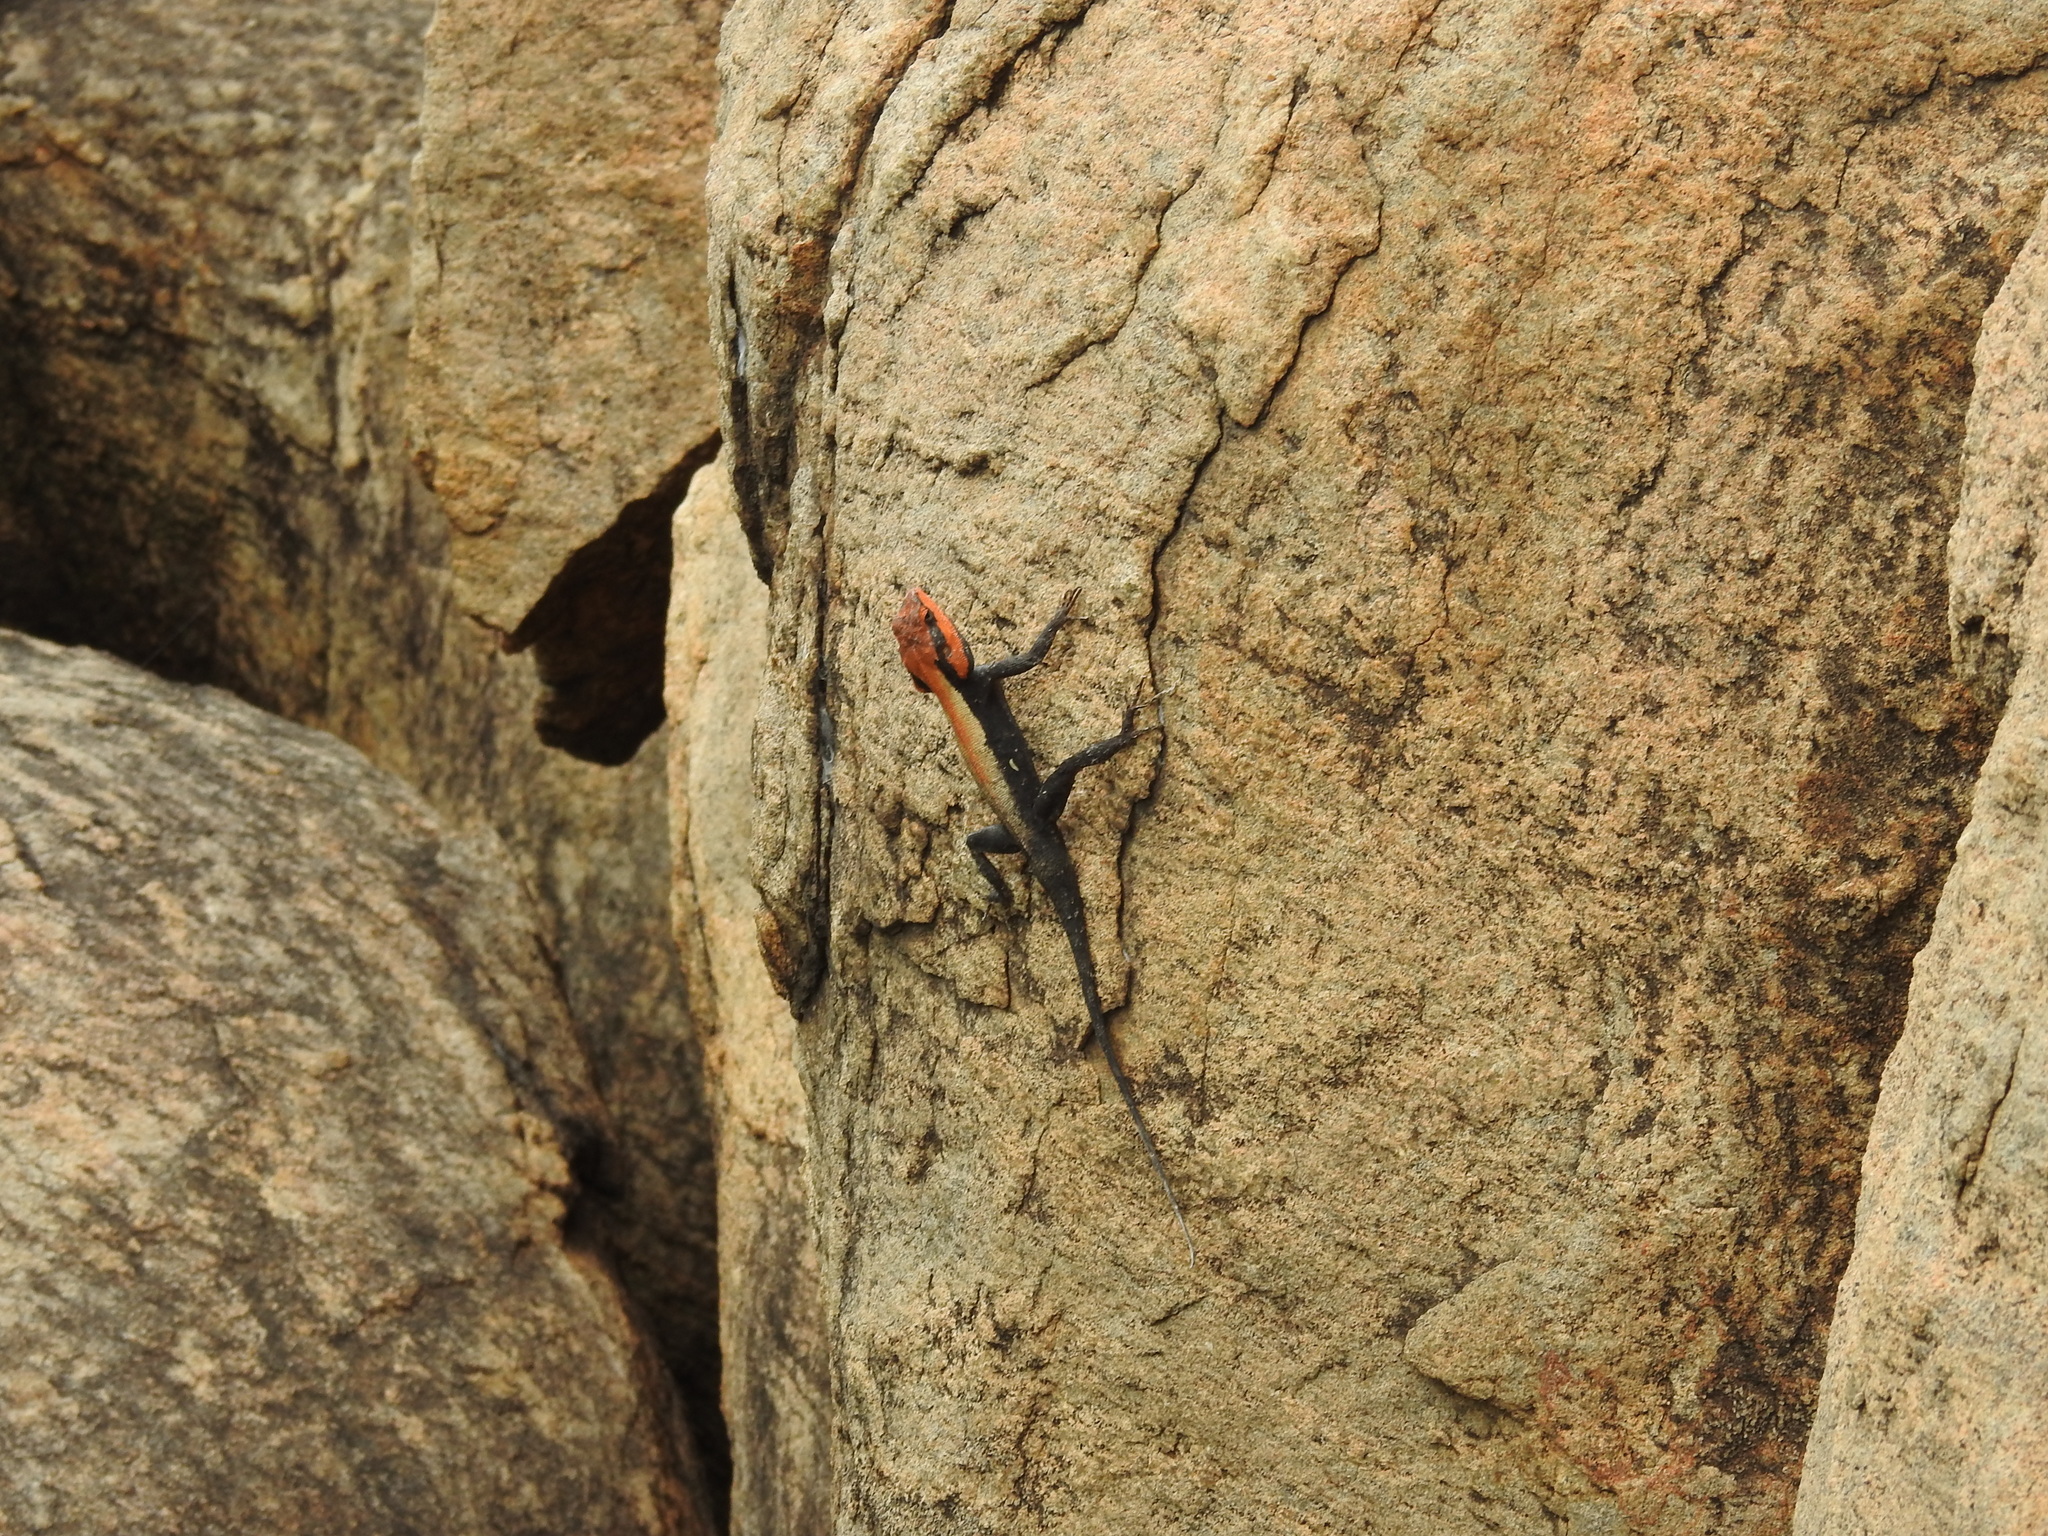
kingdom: Animalia
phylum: Chordata
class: Squamata
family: Agamidae
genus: Psammophilus
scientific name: Psammophilus blanfordanus
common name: Blanford's rock agama
